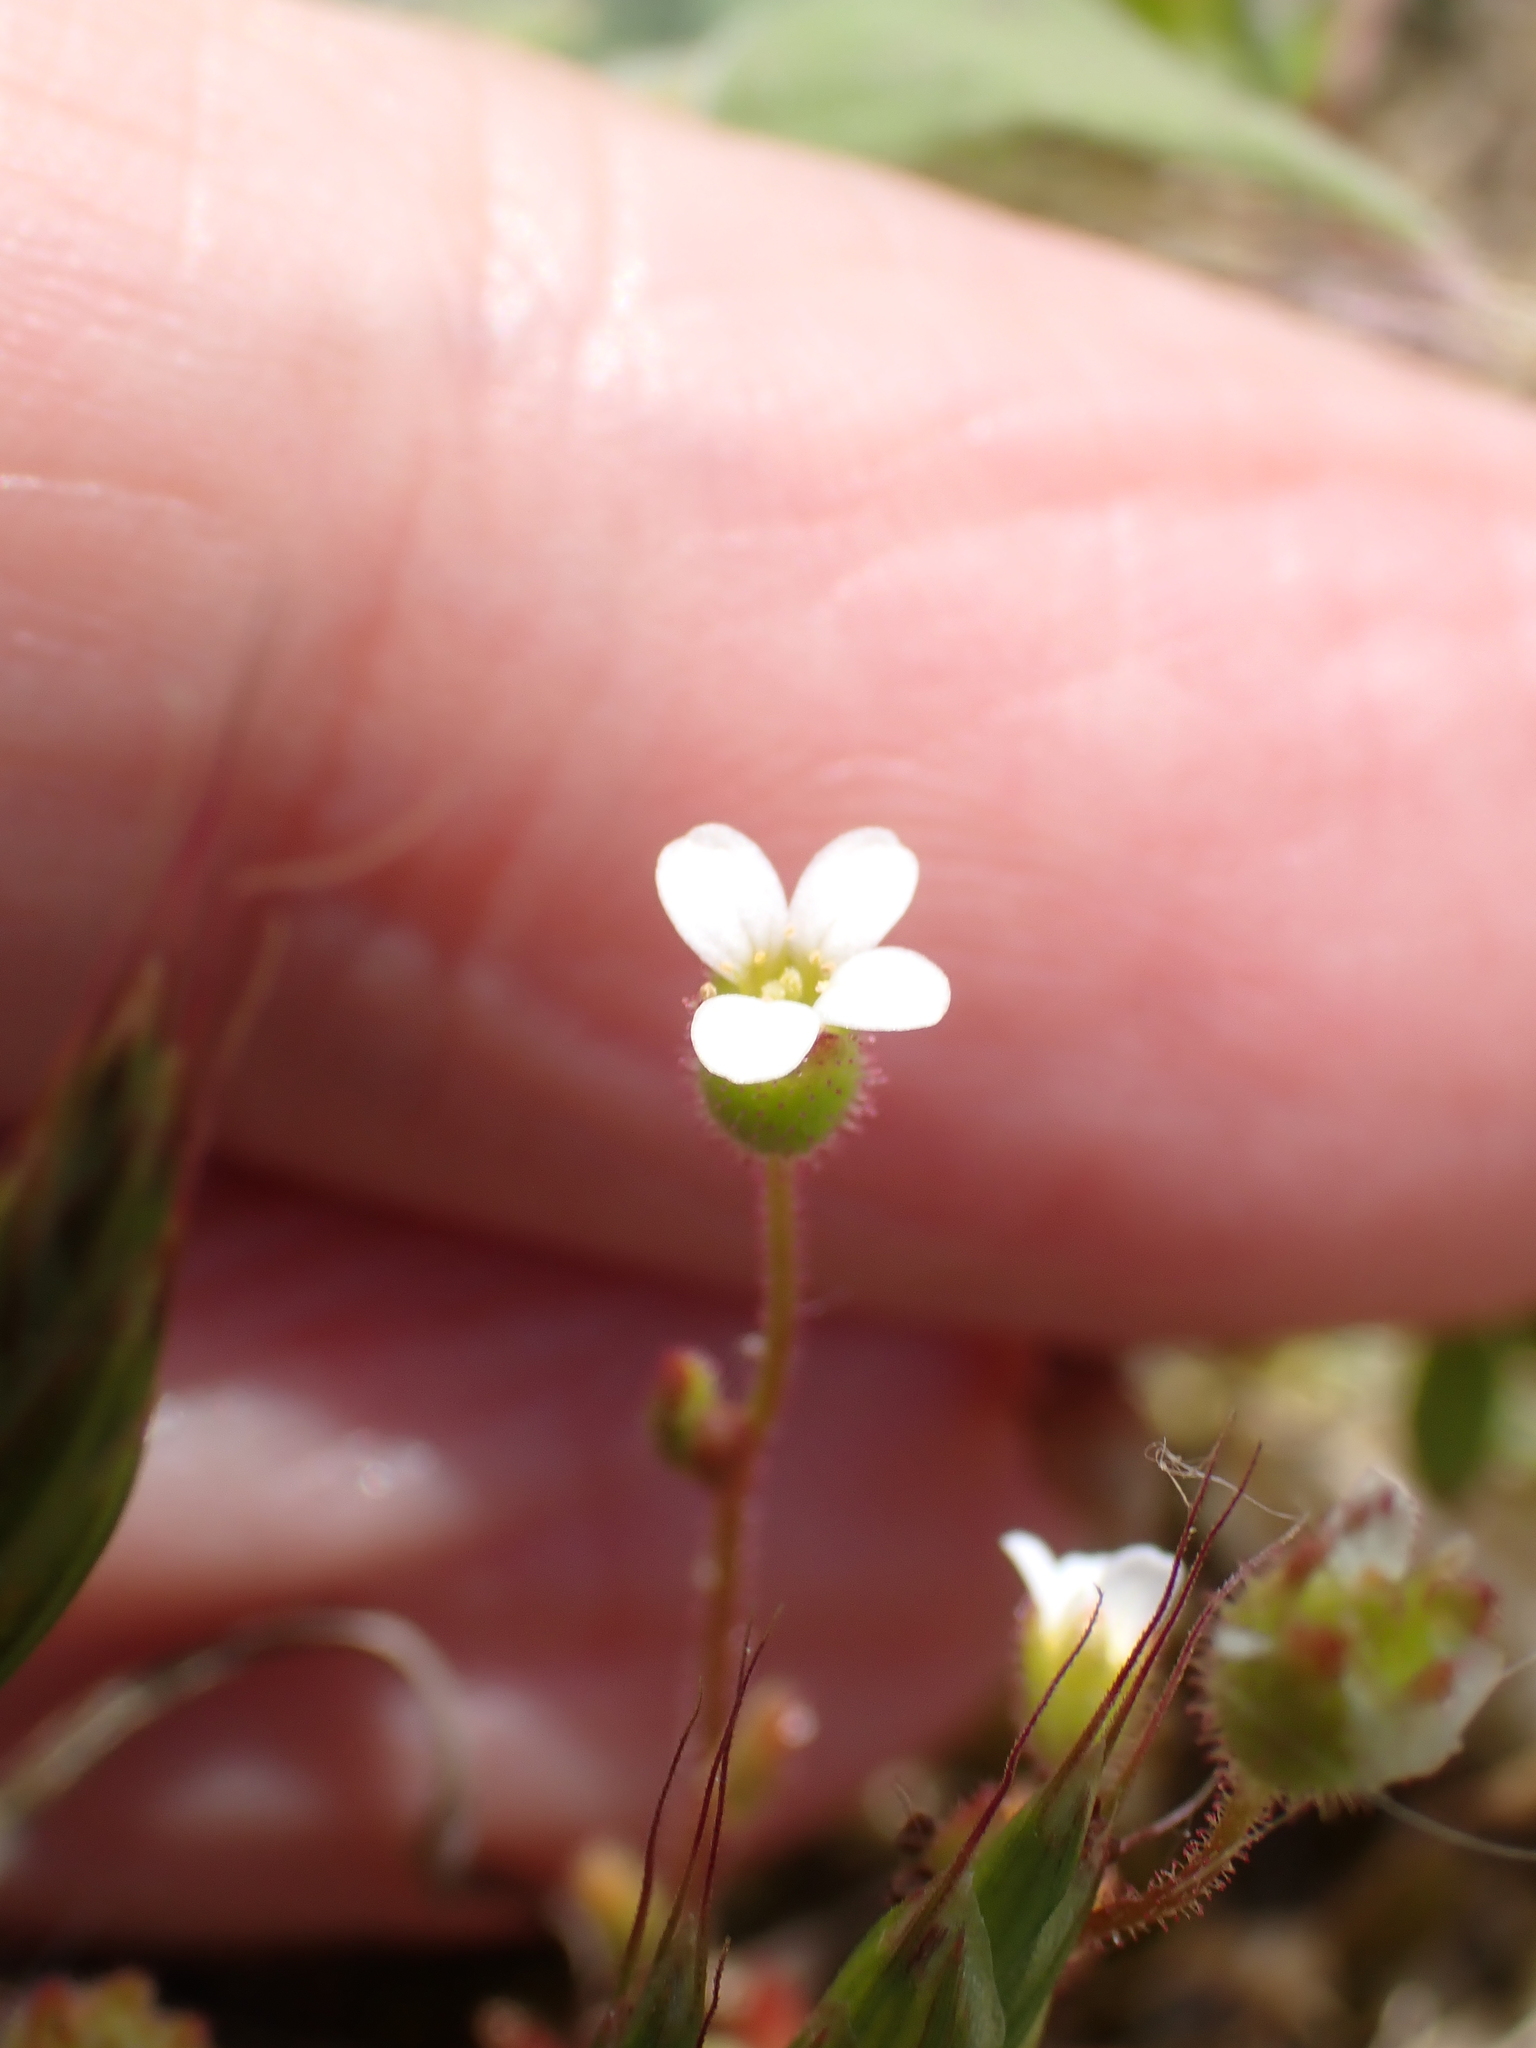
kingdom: Plantae
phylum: Tracheophyta
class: Magnoliopsida
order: Saxifragales
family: Saxifragaceae
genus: Saxifraga
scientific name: Saxifraga tridactylites
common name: Rue-leaved saxifrage
